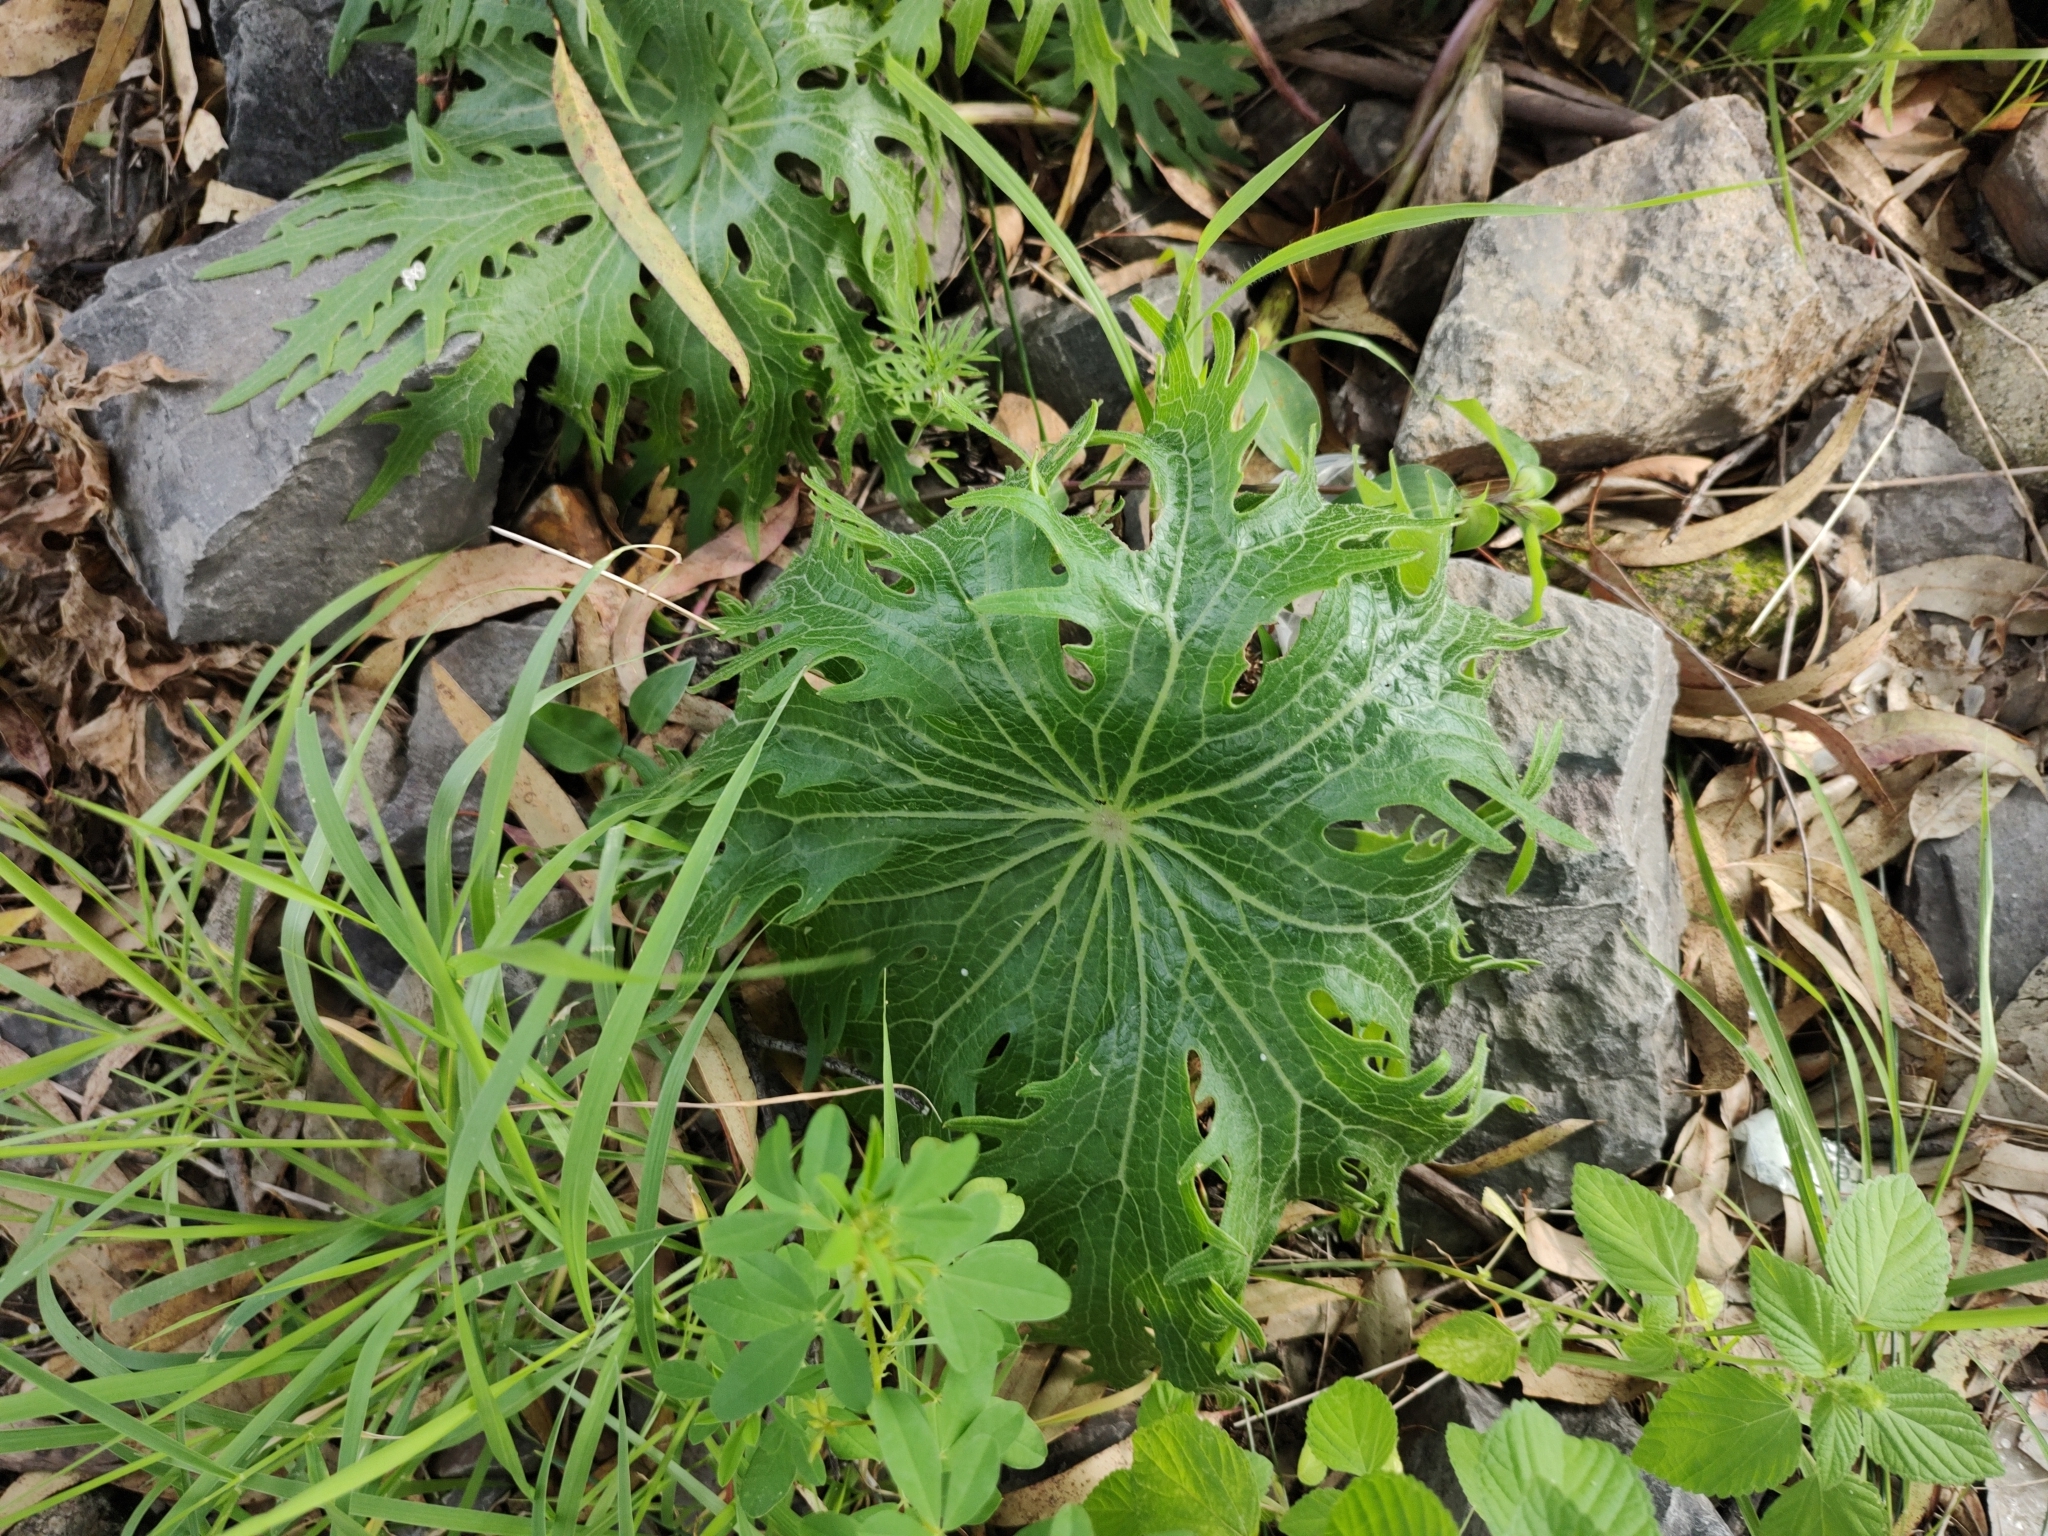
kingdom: Plantae
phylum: Tracheophyta
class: Magnoliopsida
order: Asterales
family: Asteraceae
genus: Psacalium
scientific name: Psacalium peltigerum
